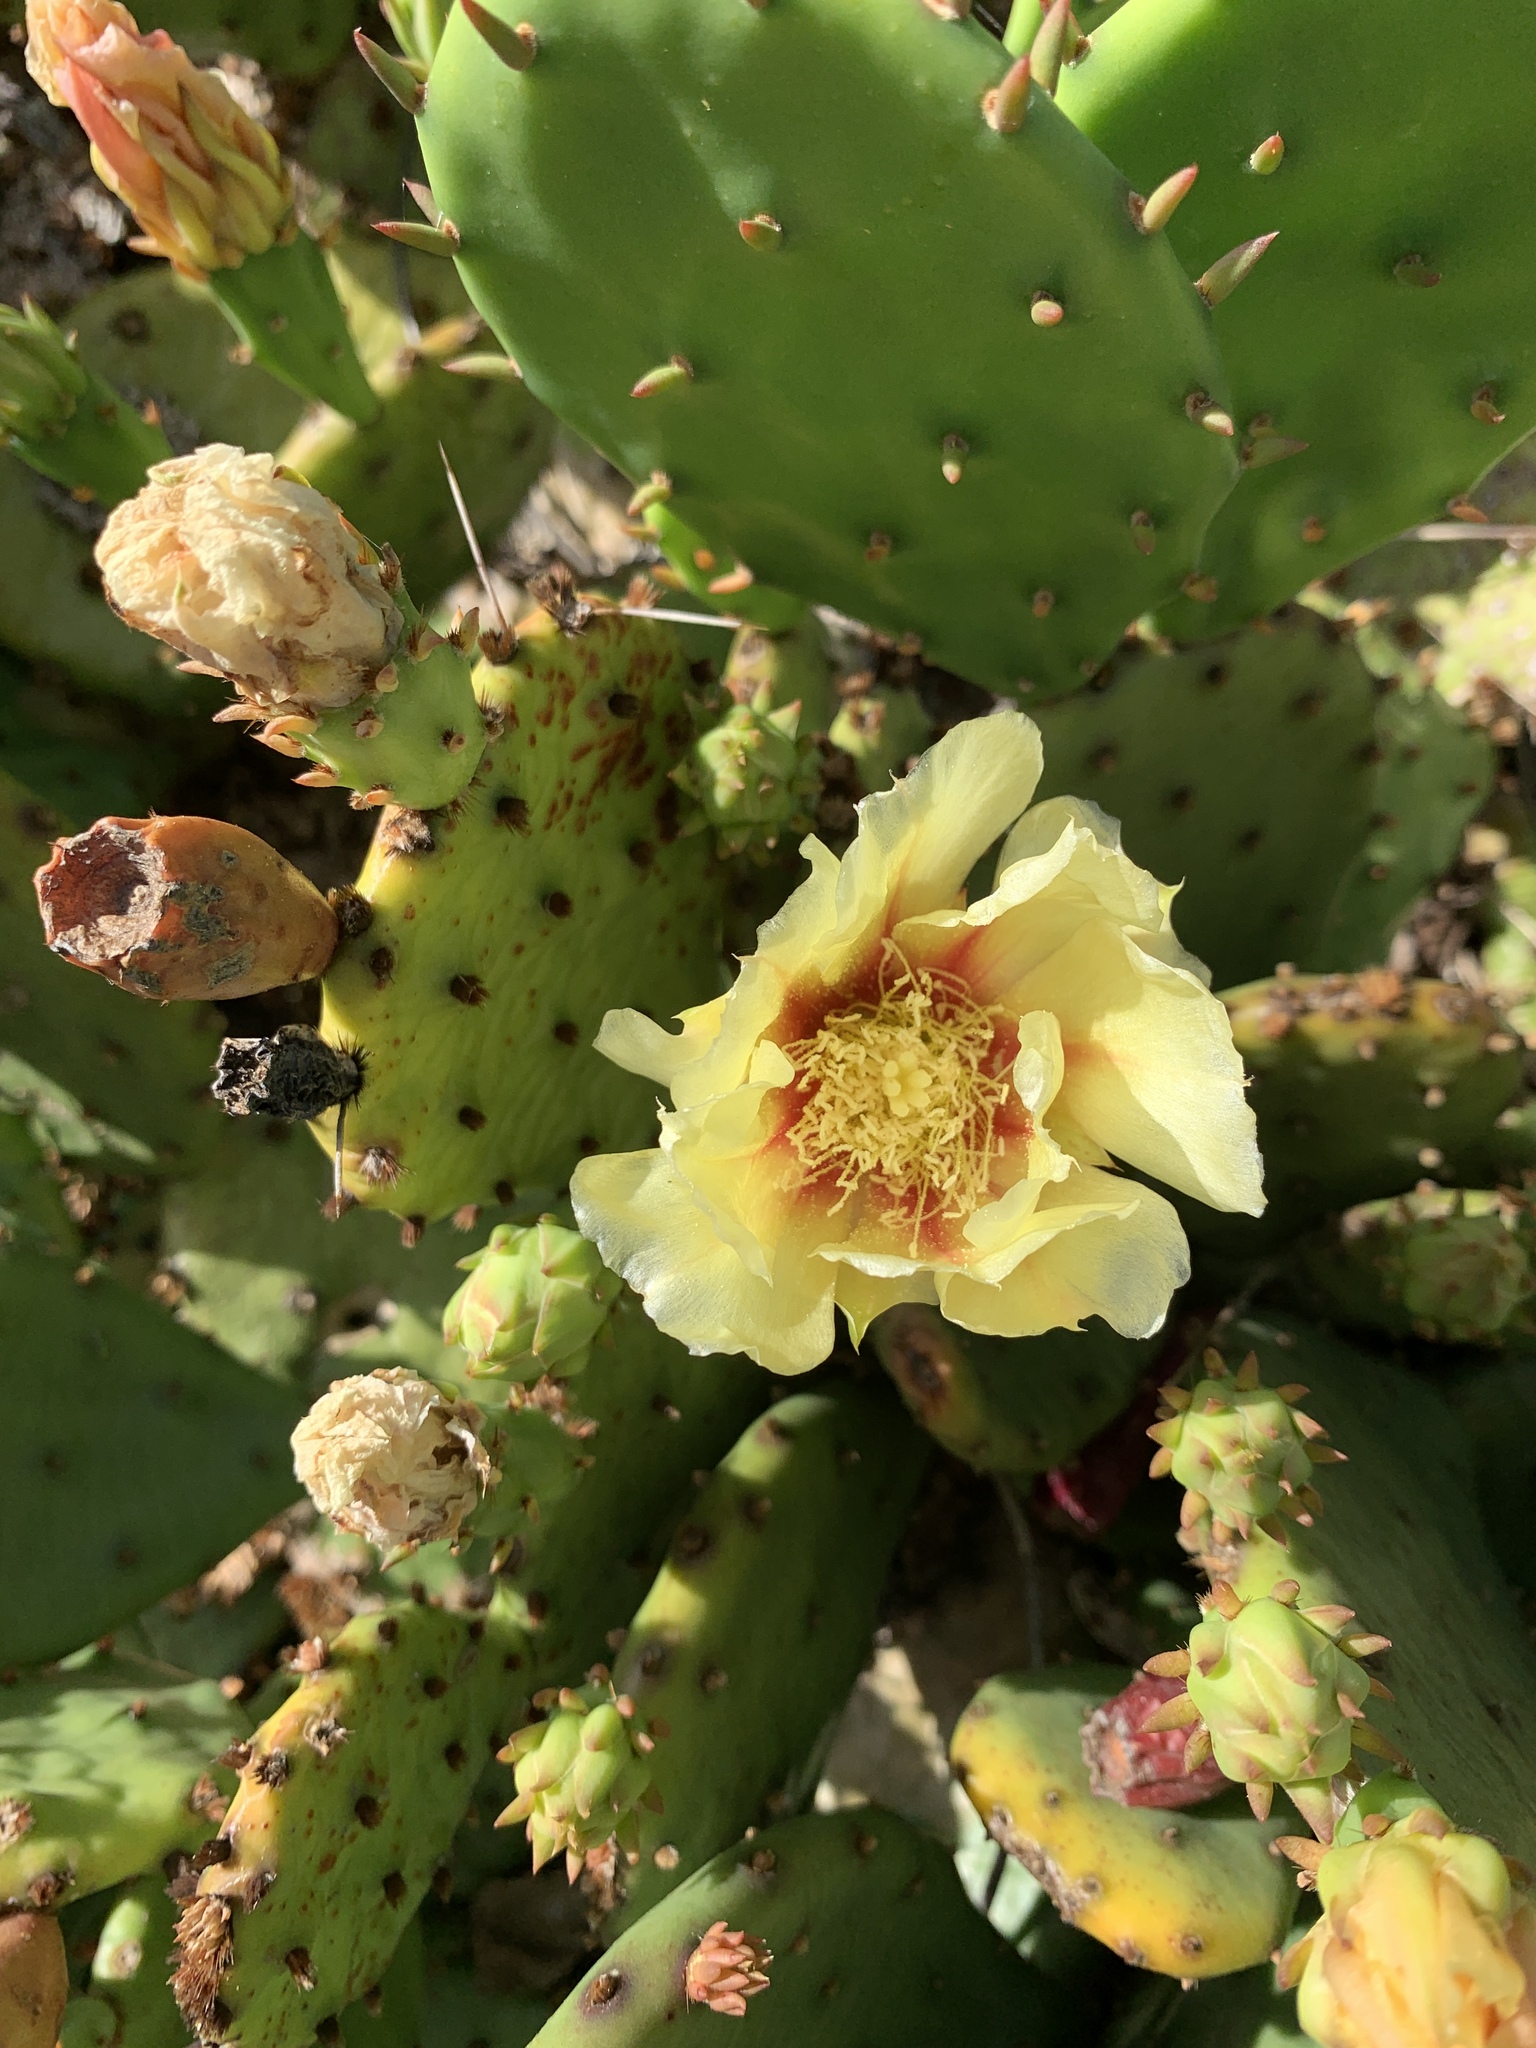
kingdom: Plantae
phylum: Tracheophyta
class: Magnoliopsida
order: Caryophyllales
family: Cactaceae
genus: Opuntia
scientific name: Opuntia humifusa
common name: Eastern prickly-pear
